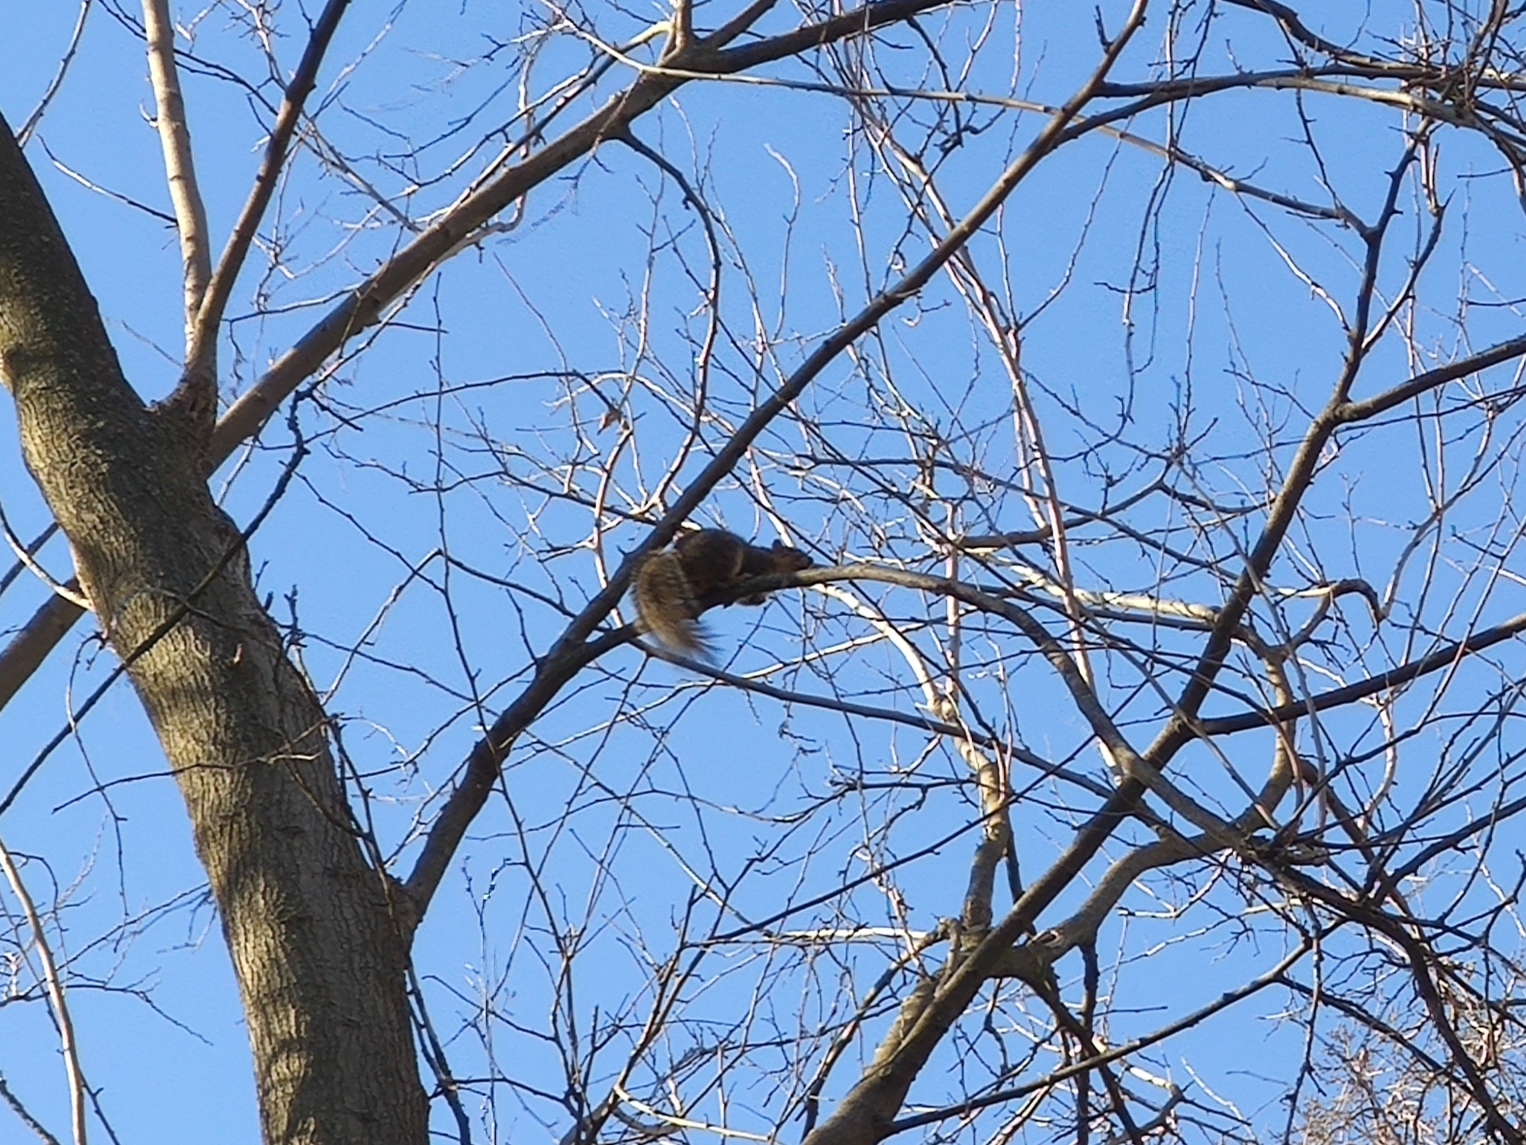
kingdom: Animalia
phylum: Chordata
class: Mammalia
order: Rodentia
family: Sciuridae
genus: Sciurus
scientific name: Sciurus niger
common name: Fox squirrel
